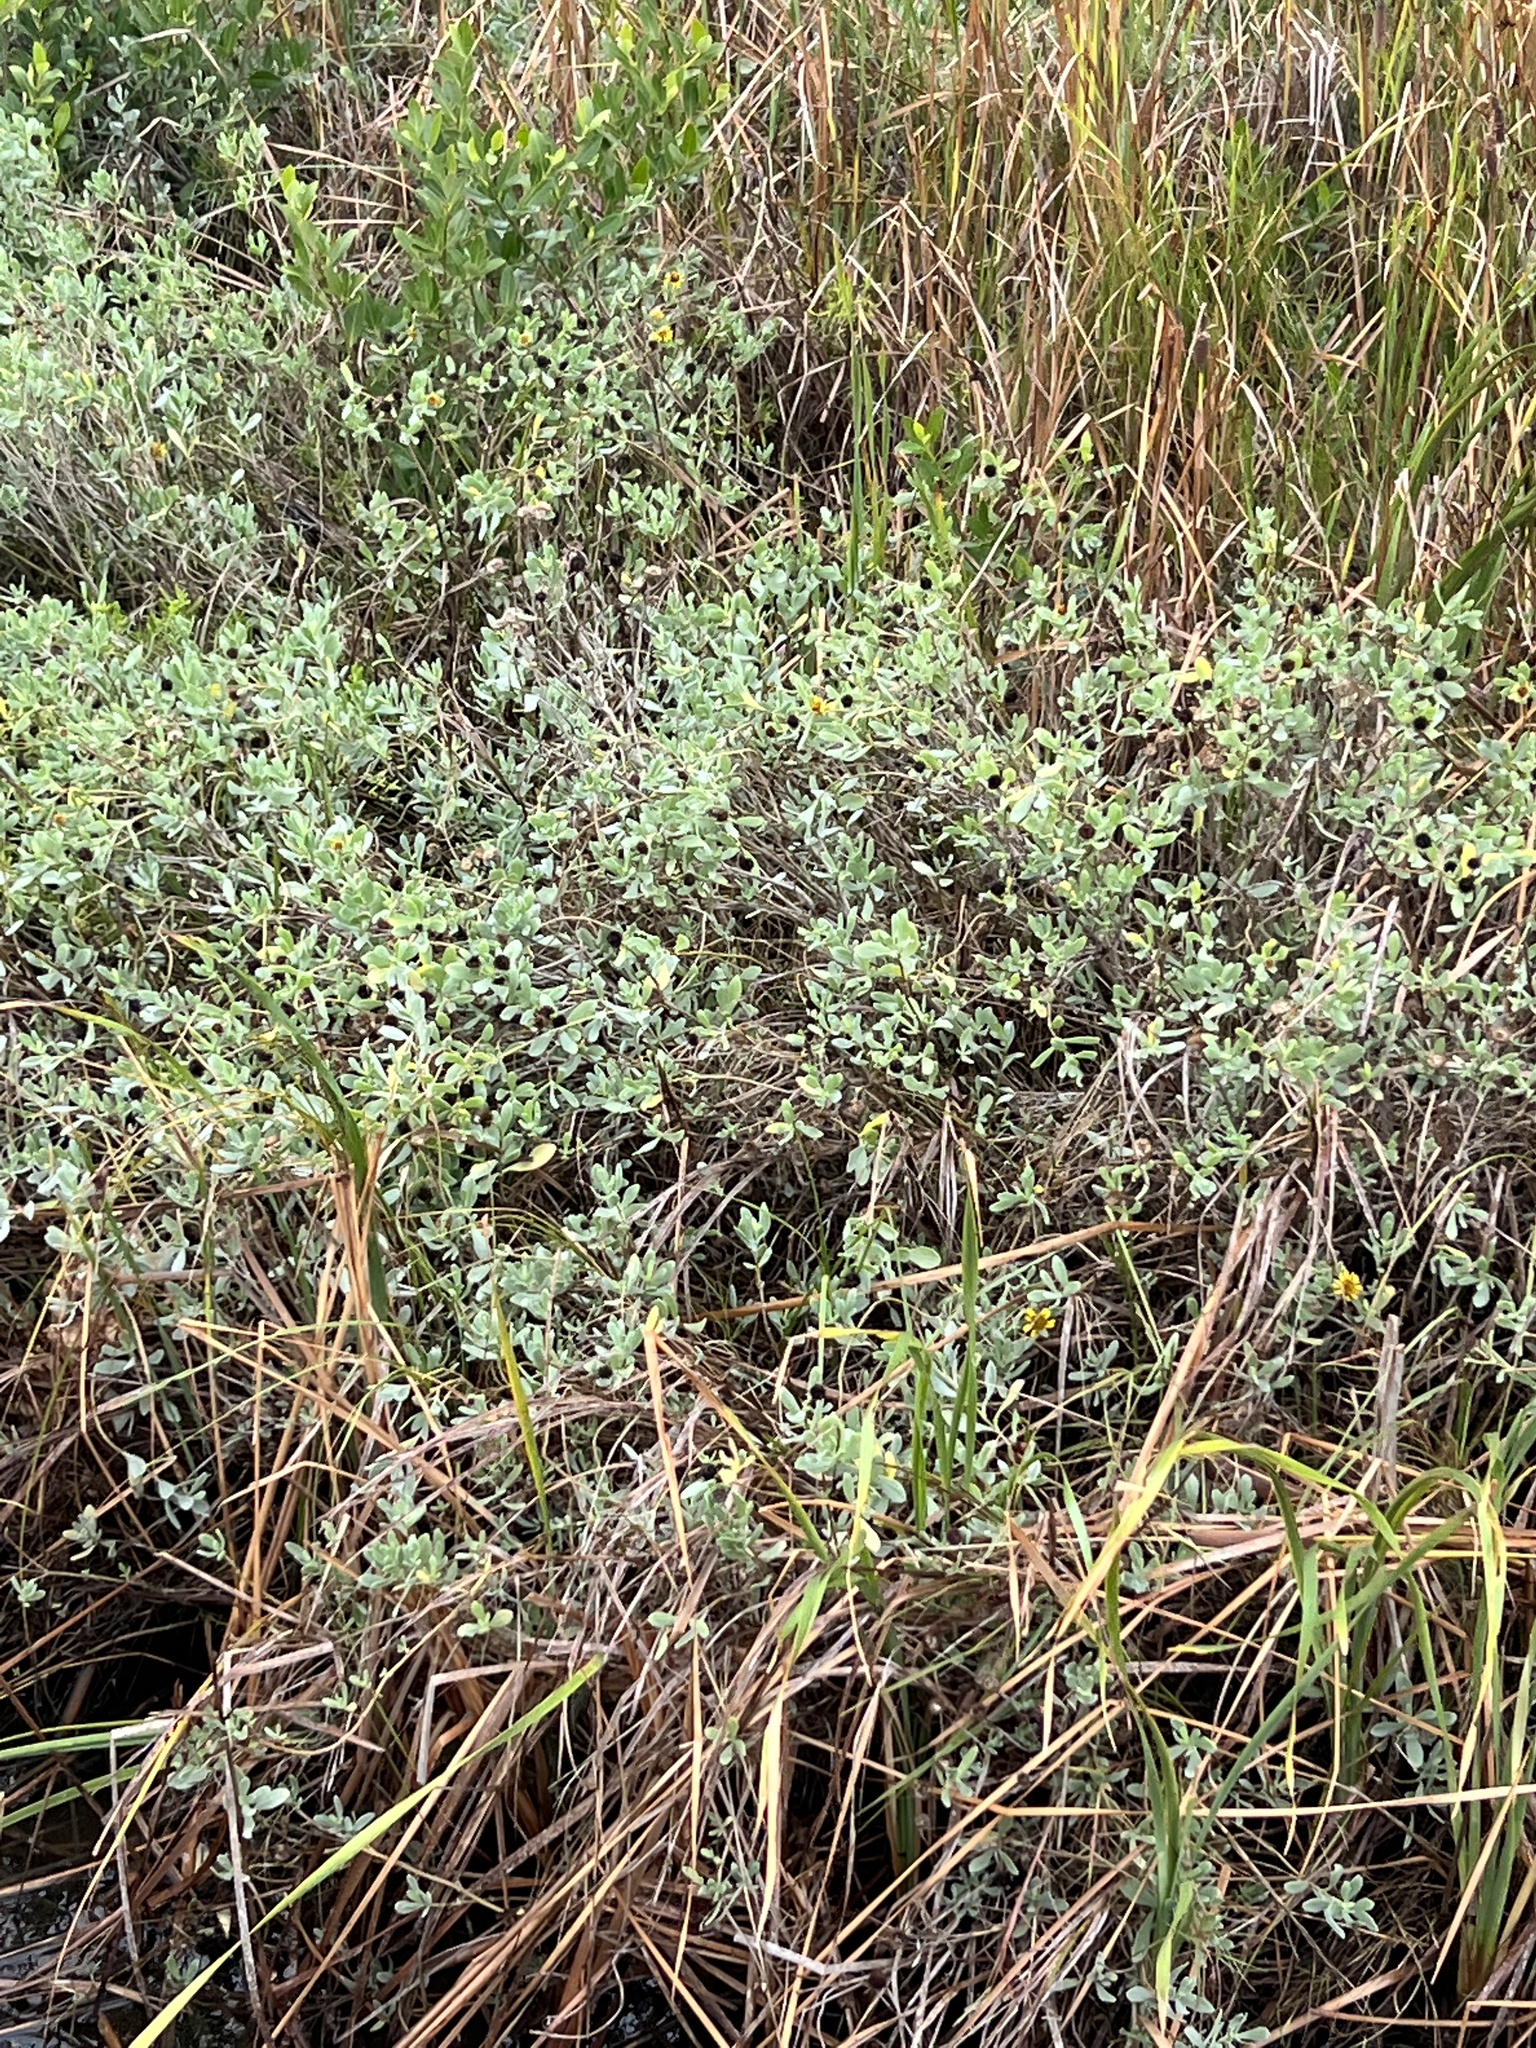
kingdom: Plantae
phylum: Tracheophyta
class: Magnoliopsida
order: Asterales
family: Asteraceae
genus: Borrichia
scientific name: Borrichia frutescens
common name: Sea oxeye
